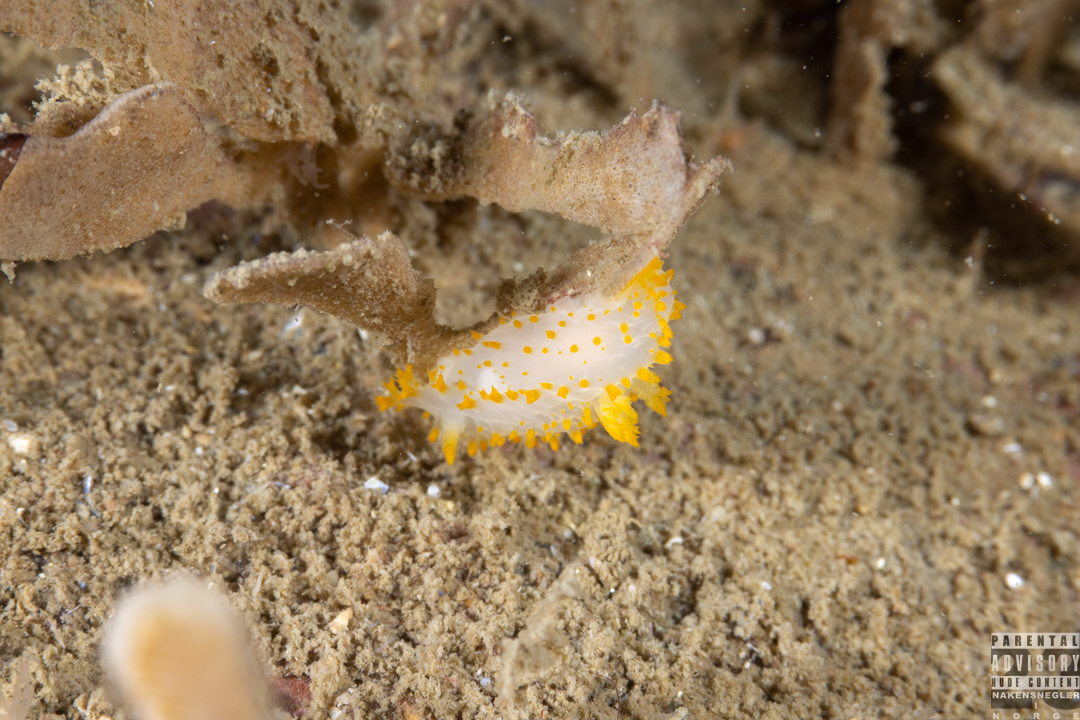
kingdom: Animalia
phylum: Mollusca
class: Gastropoda
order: Nudibranchia
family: Polyceridae
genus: Crimora
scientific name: Crimora papillata
